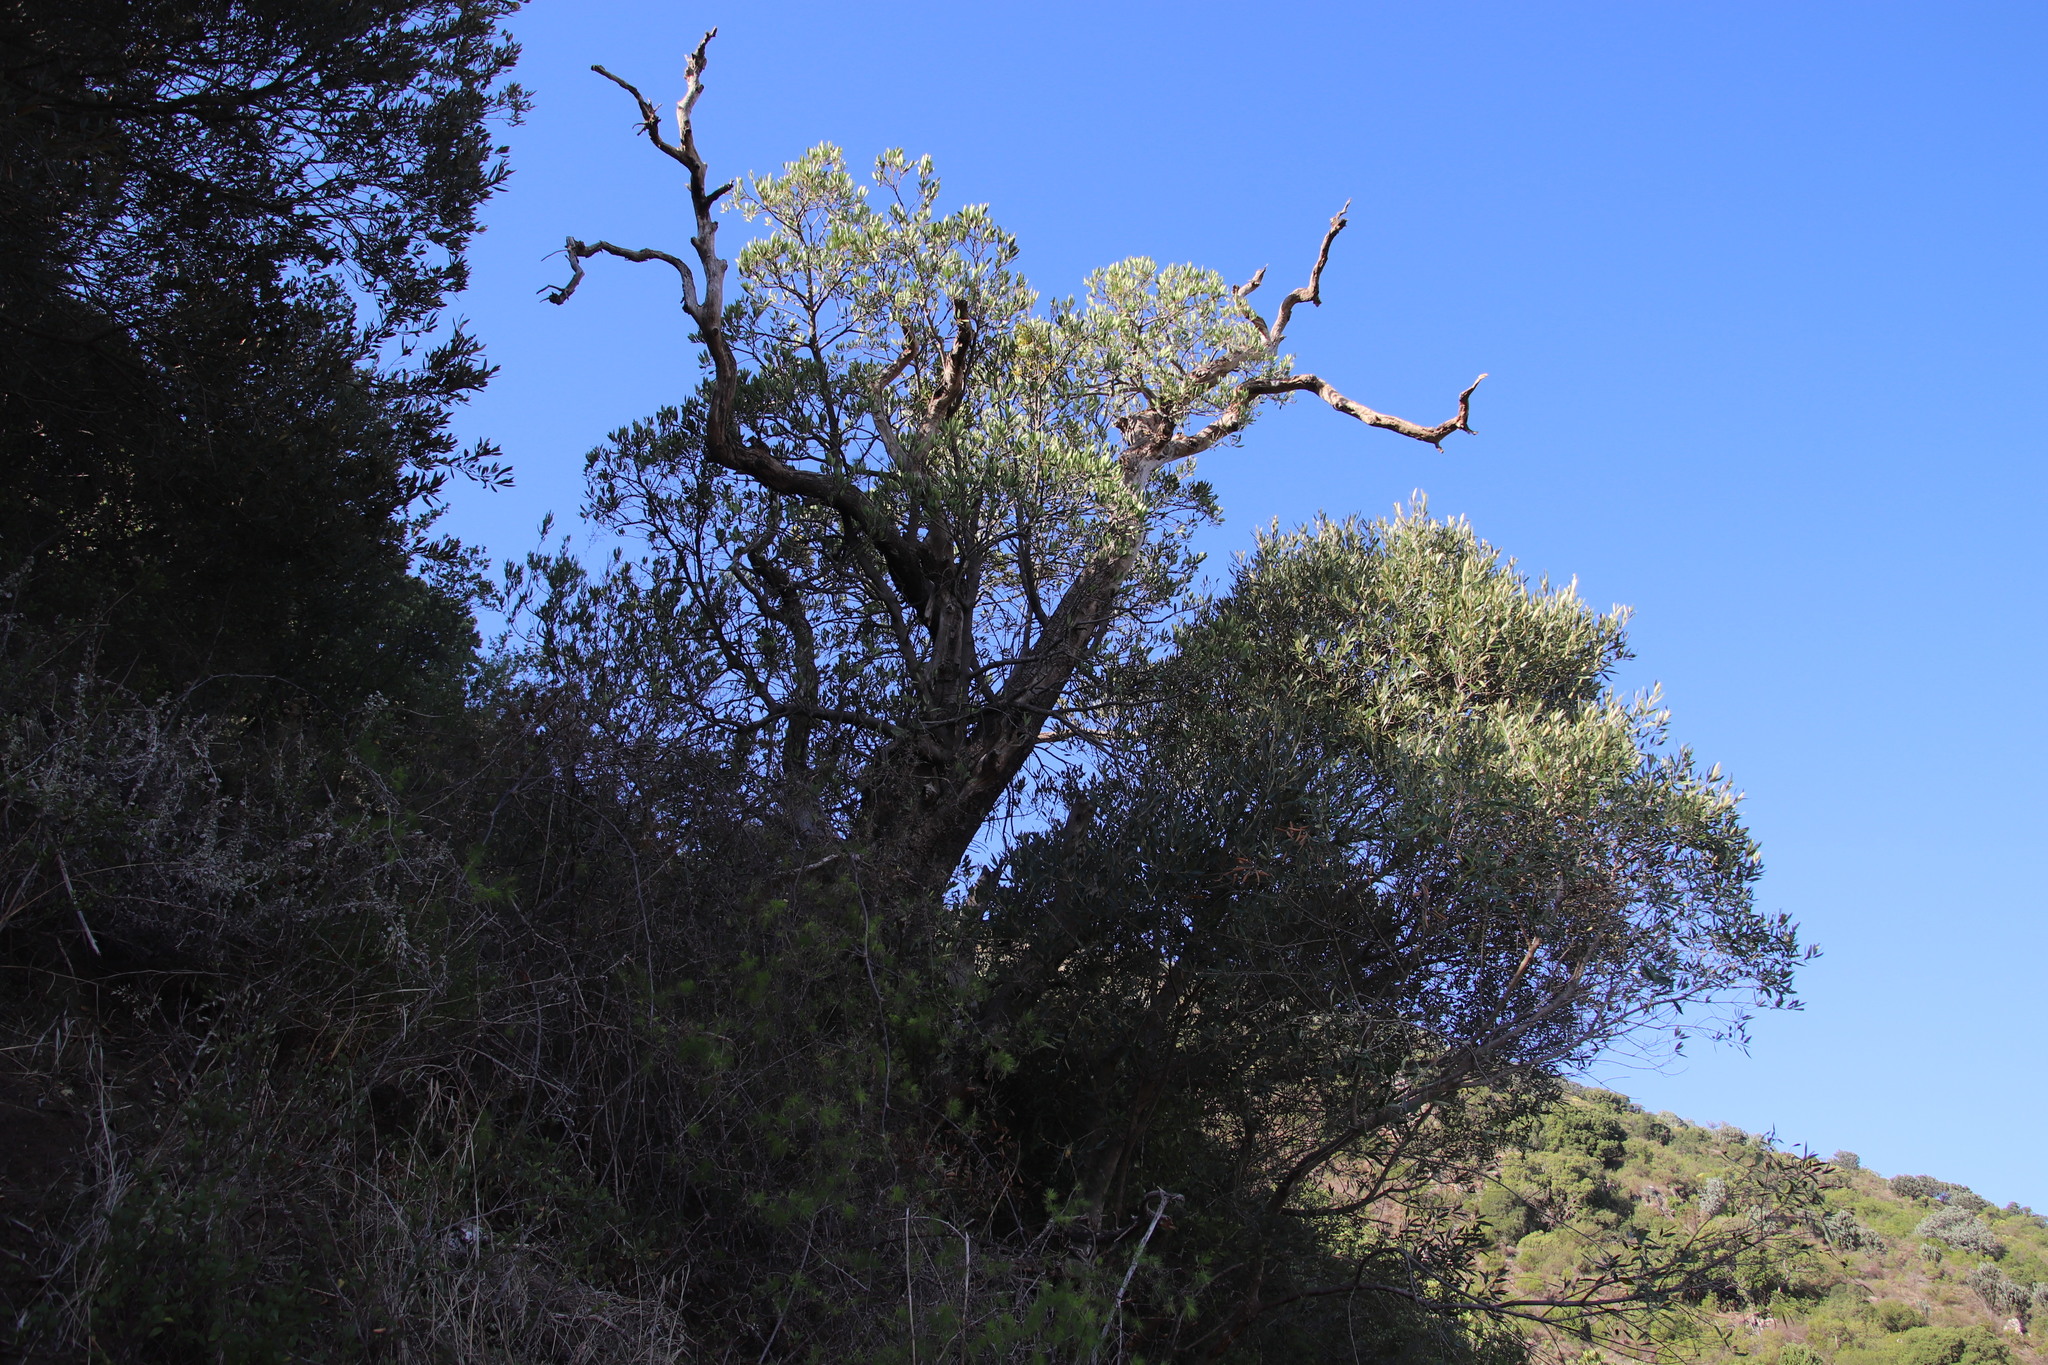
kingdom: Plantae
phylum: Tracheophyta
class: Magnoliopsida
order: Celastrales
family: Celastraceae
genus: Gymnosporia
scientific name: Gymnosporia laurina
